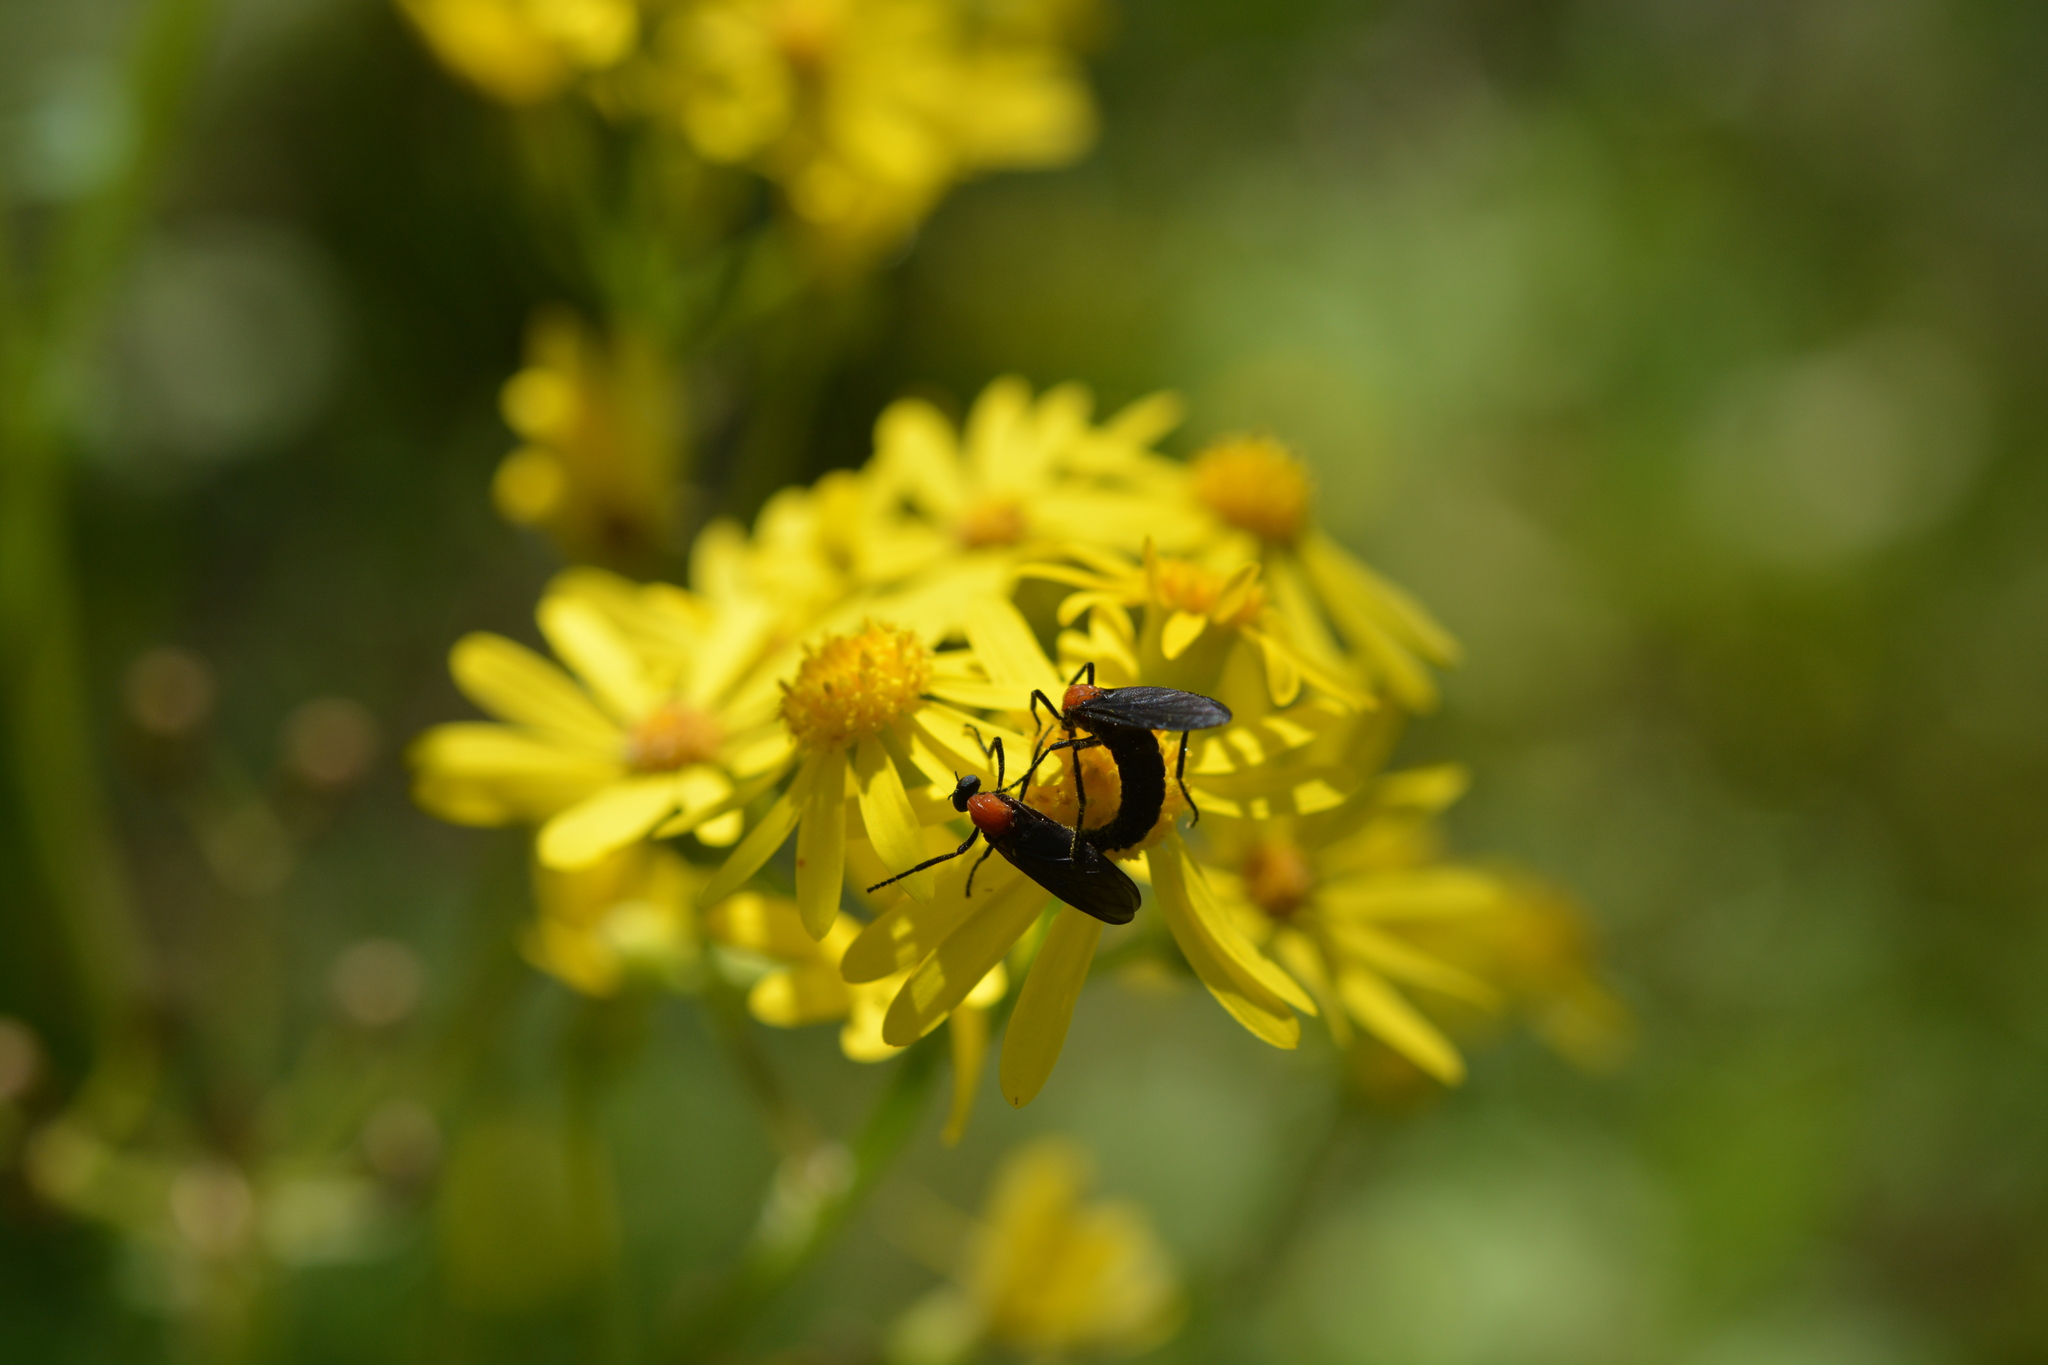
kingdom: Animalia
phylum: Arthropoda
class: Insecta
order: Diptera
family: Bibionidae
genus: Plecia
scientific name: Plecia nearctica
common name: March fly
